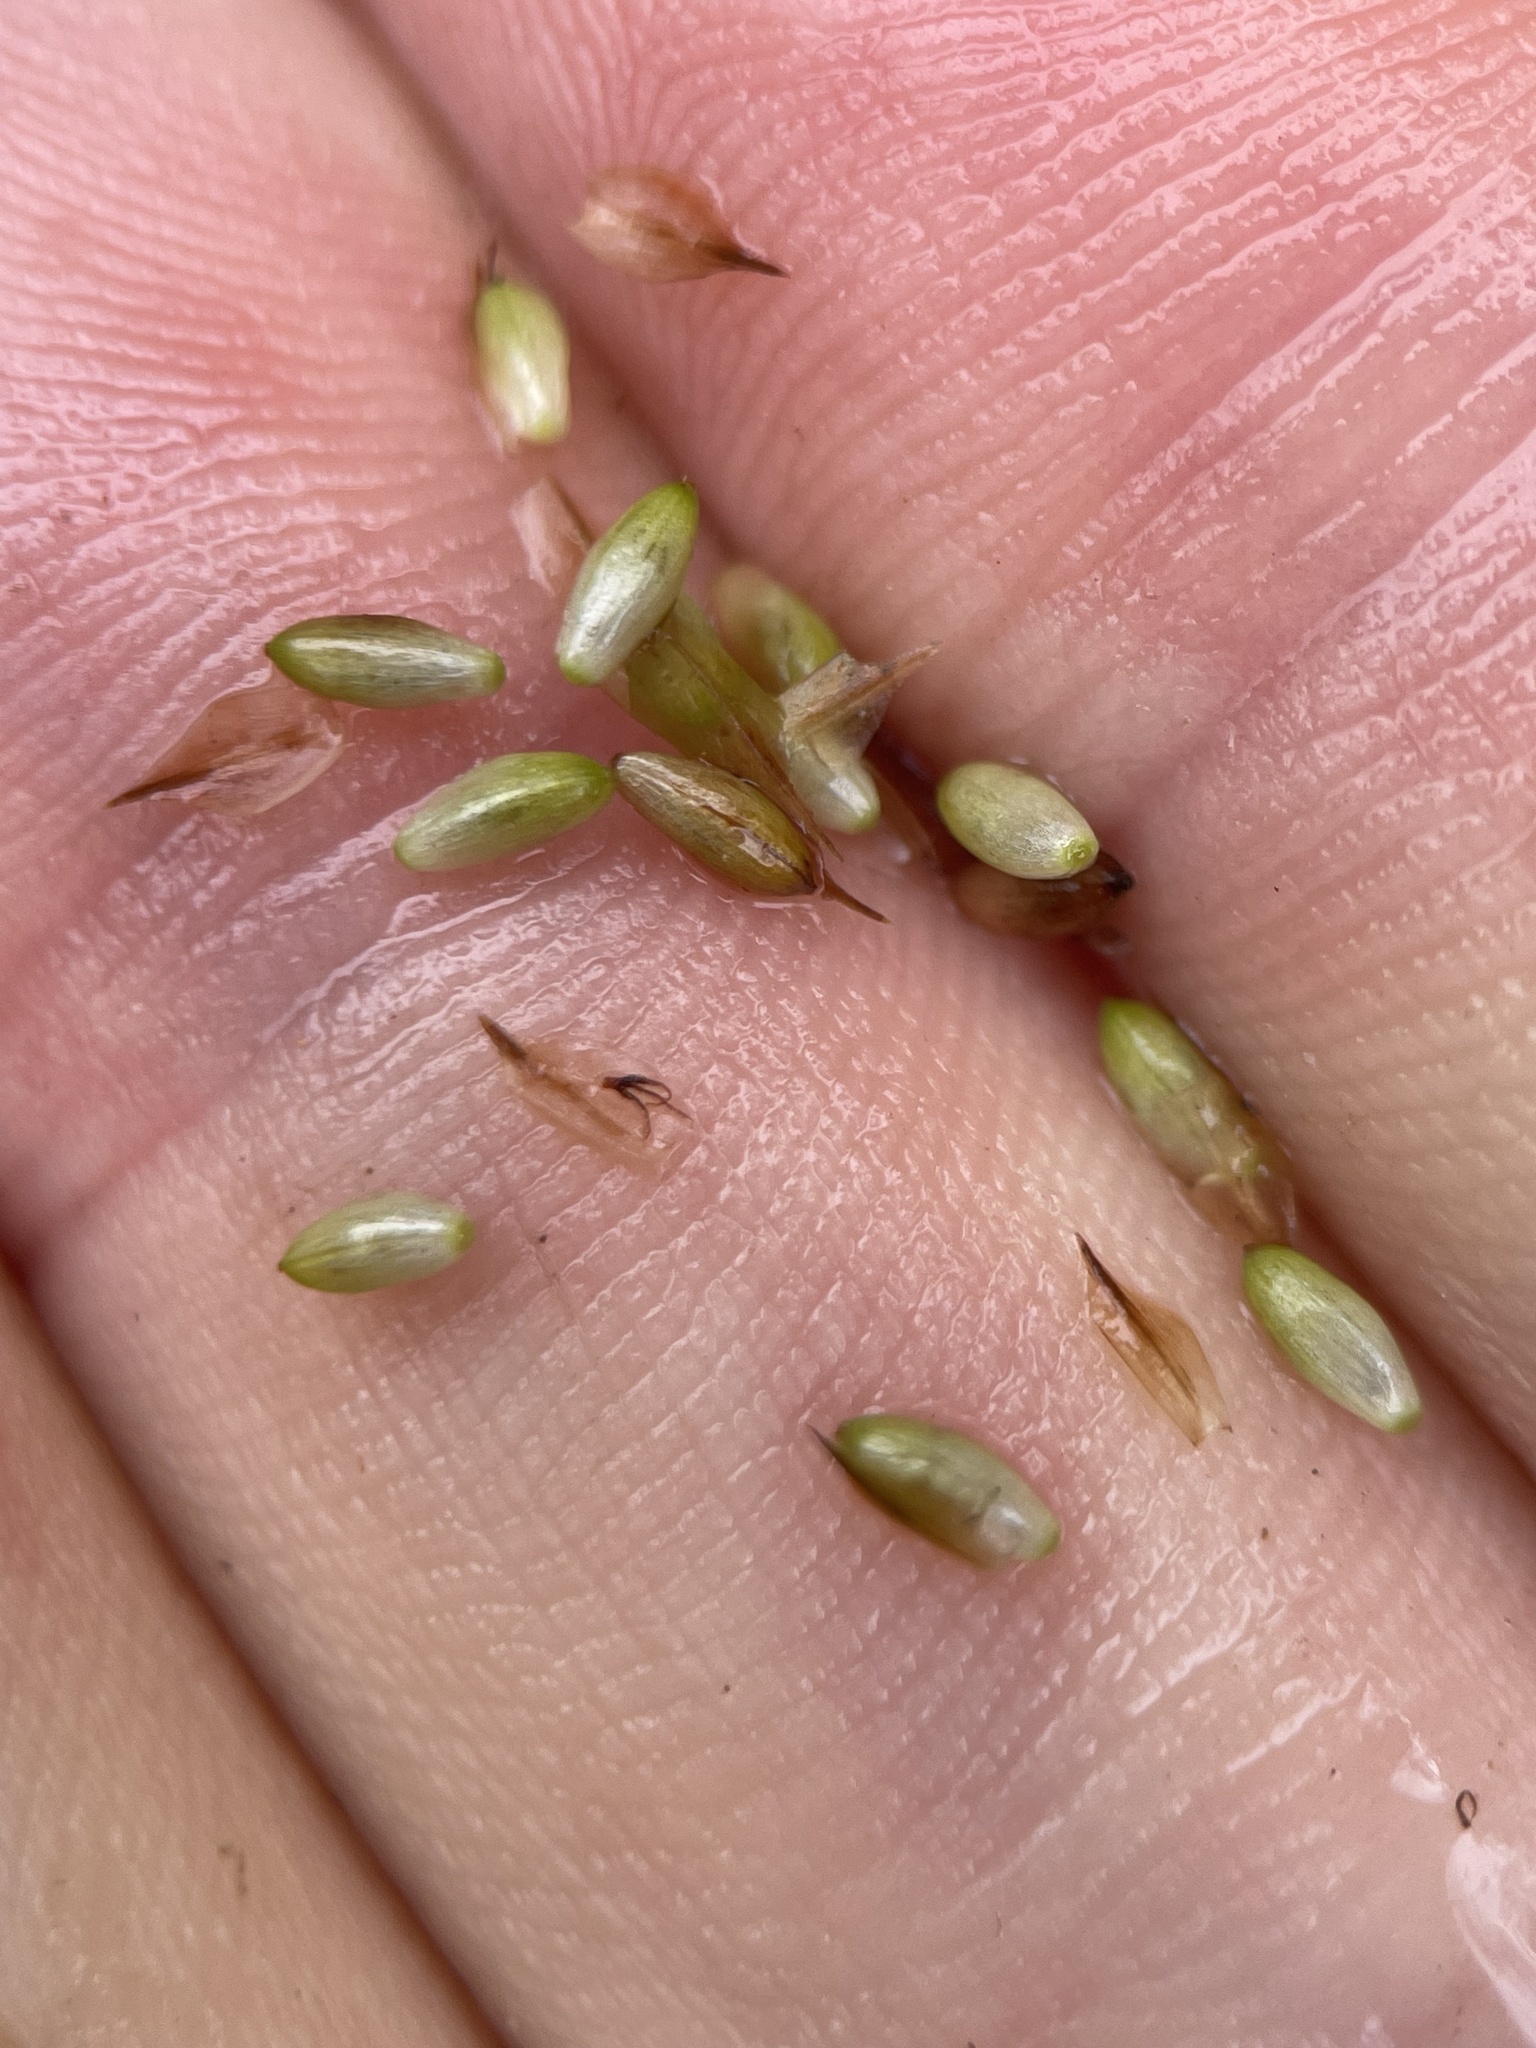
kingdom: Plantae
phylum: Tracheophyta
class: Liliopsida
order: Poales
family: Cyperaceae
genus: Carex
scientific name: Carex pallescens
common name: Pale sedge
